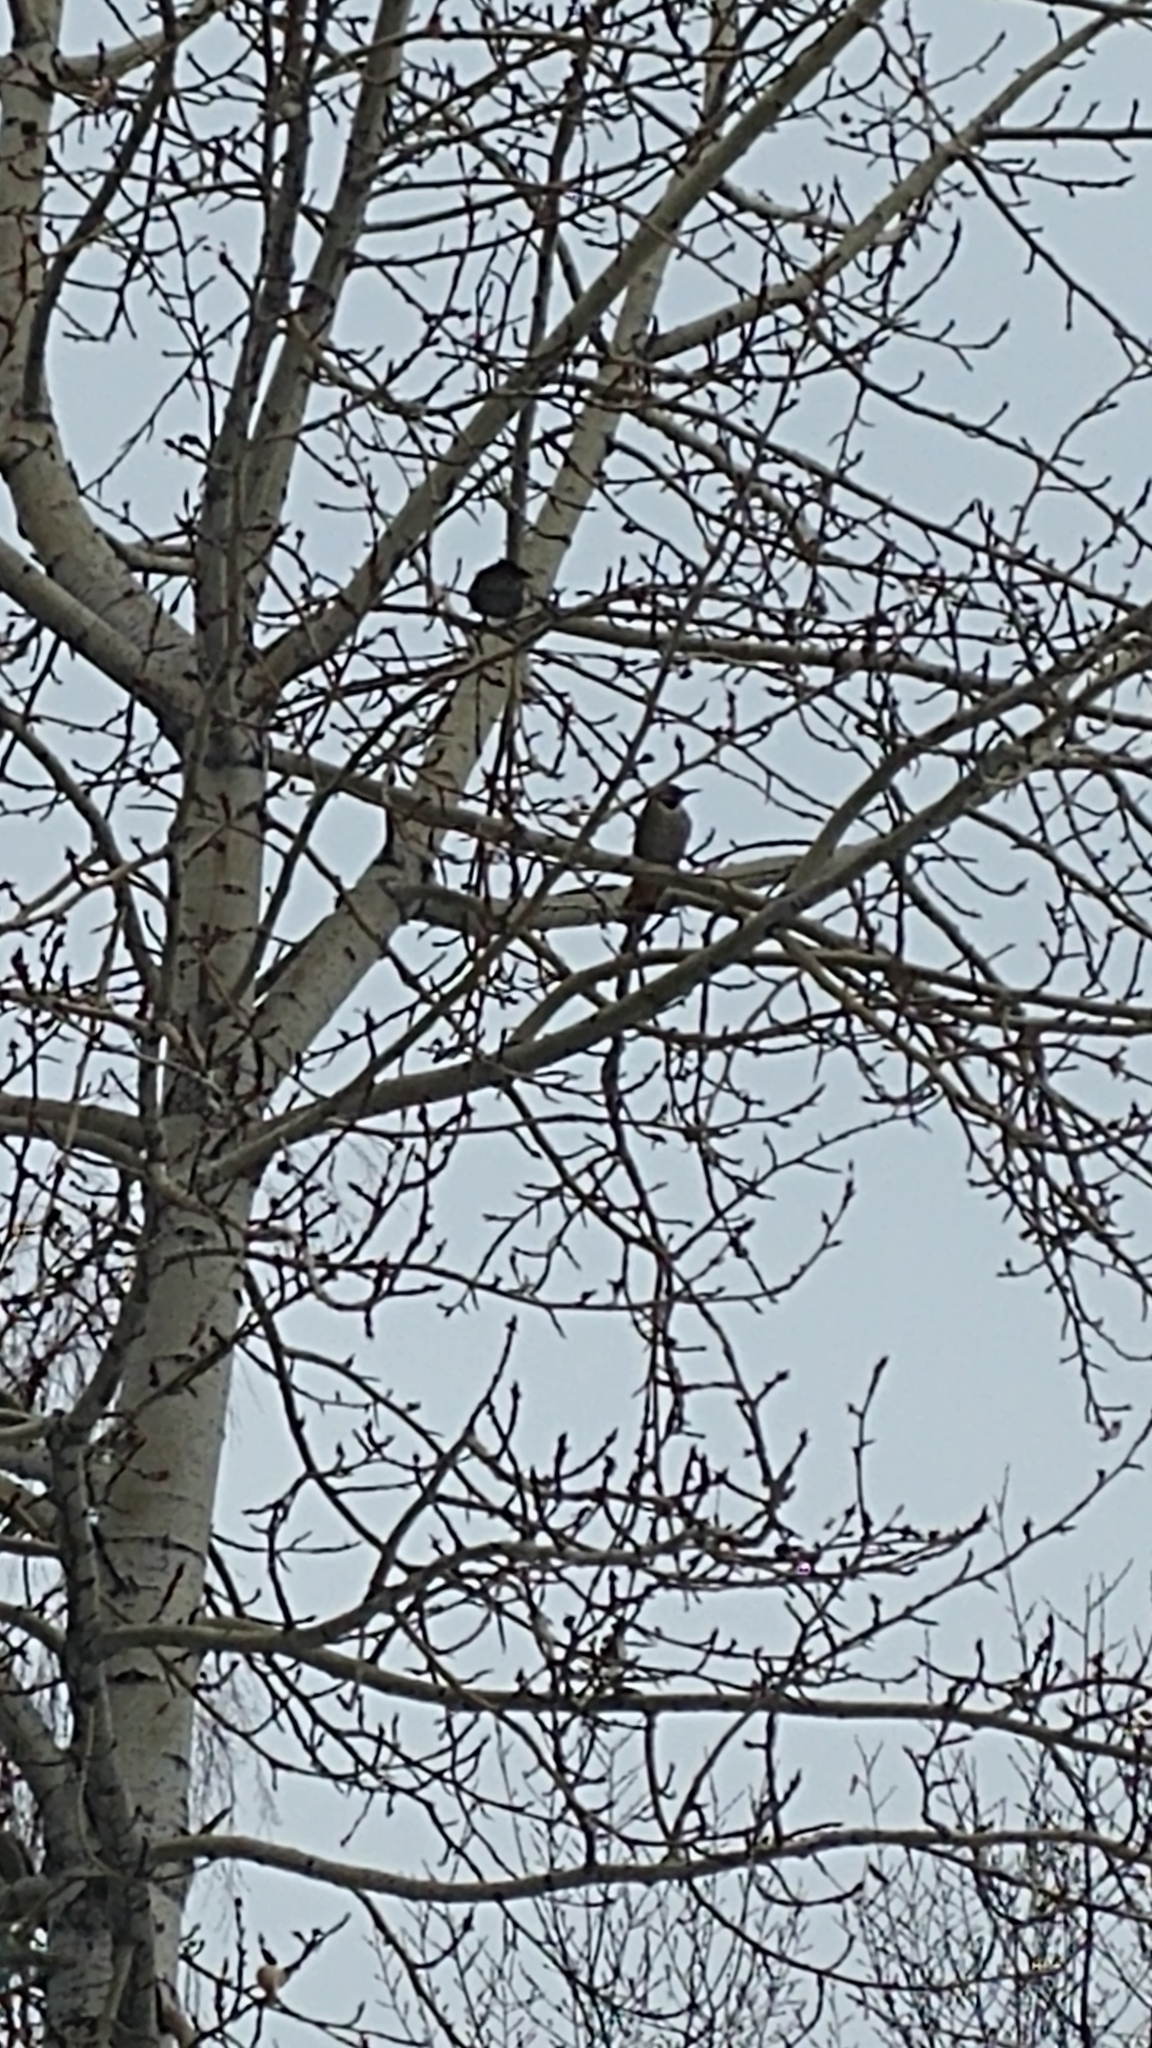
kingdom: Animalia
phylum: Chordata
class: Aves
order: Piciformes
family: Picidae
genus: Colaptes
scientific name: Colaptes auratus
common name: Northern flicker
